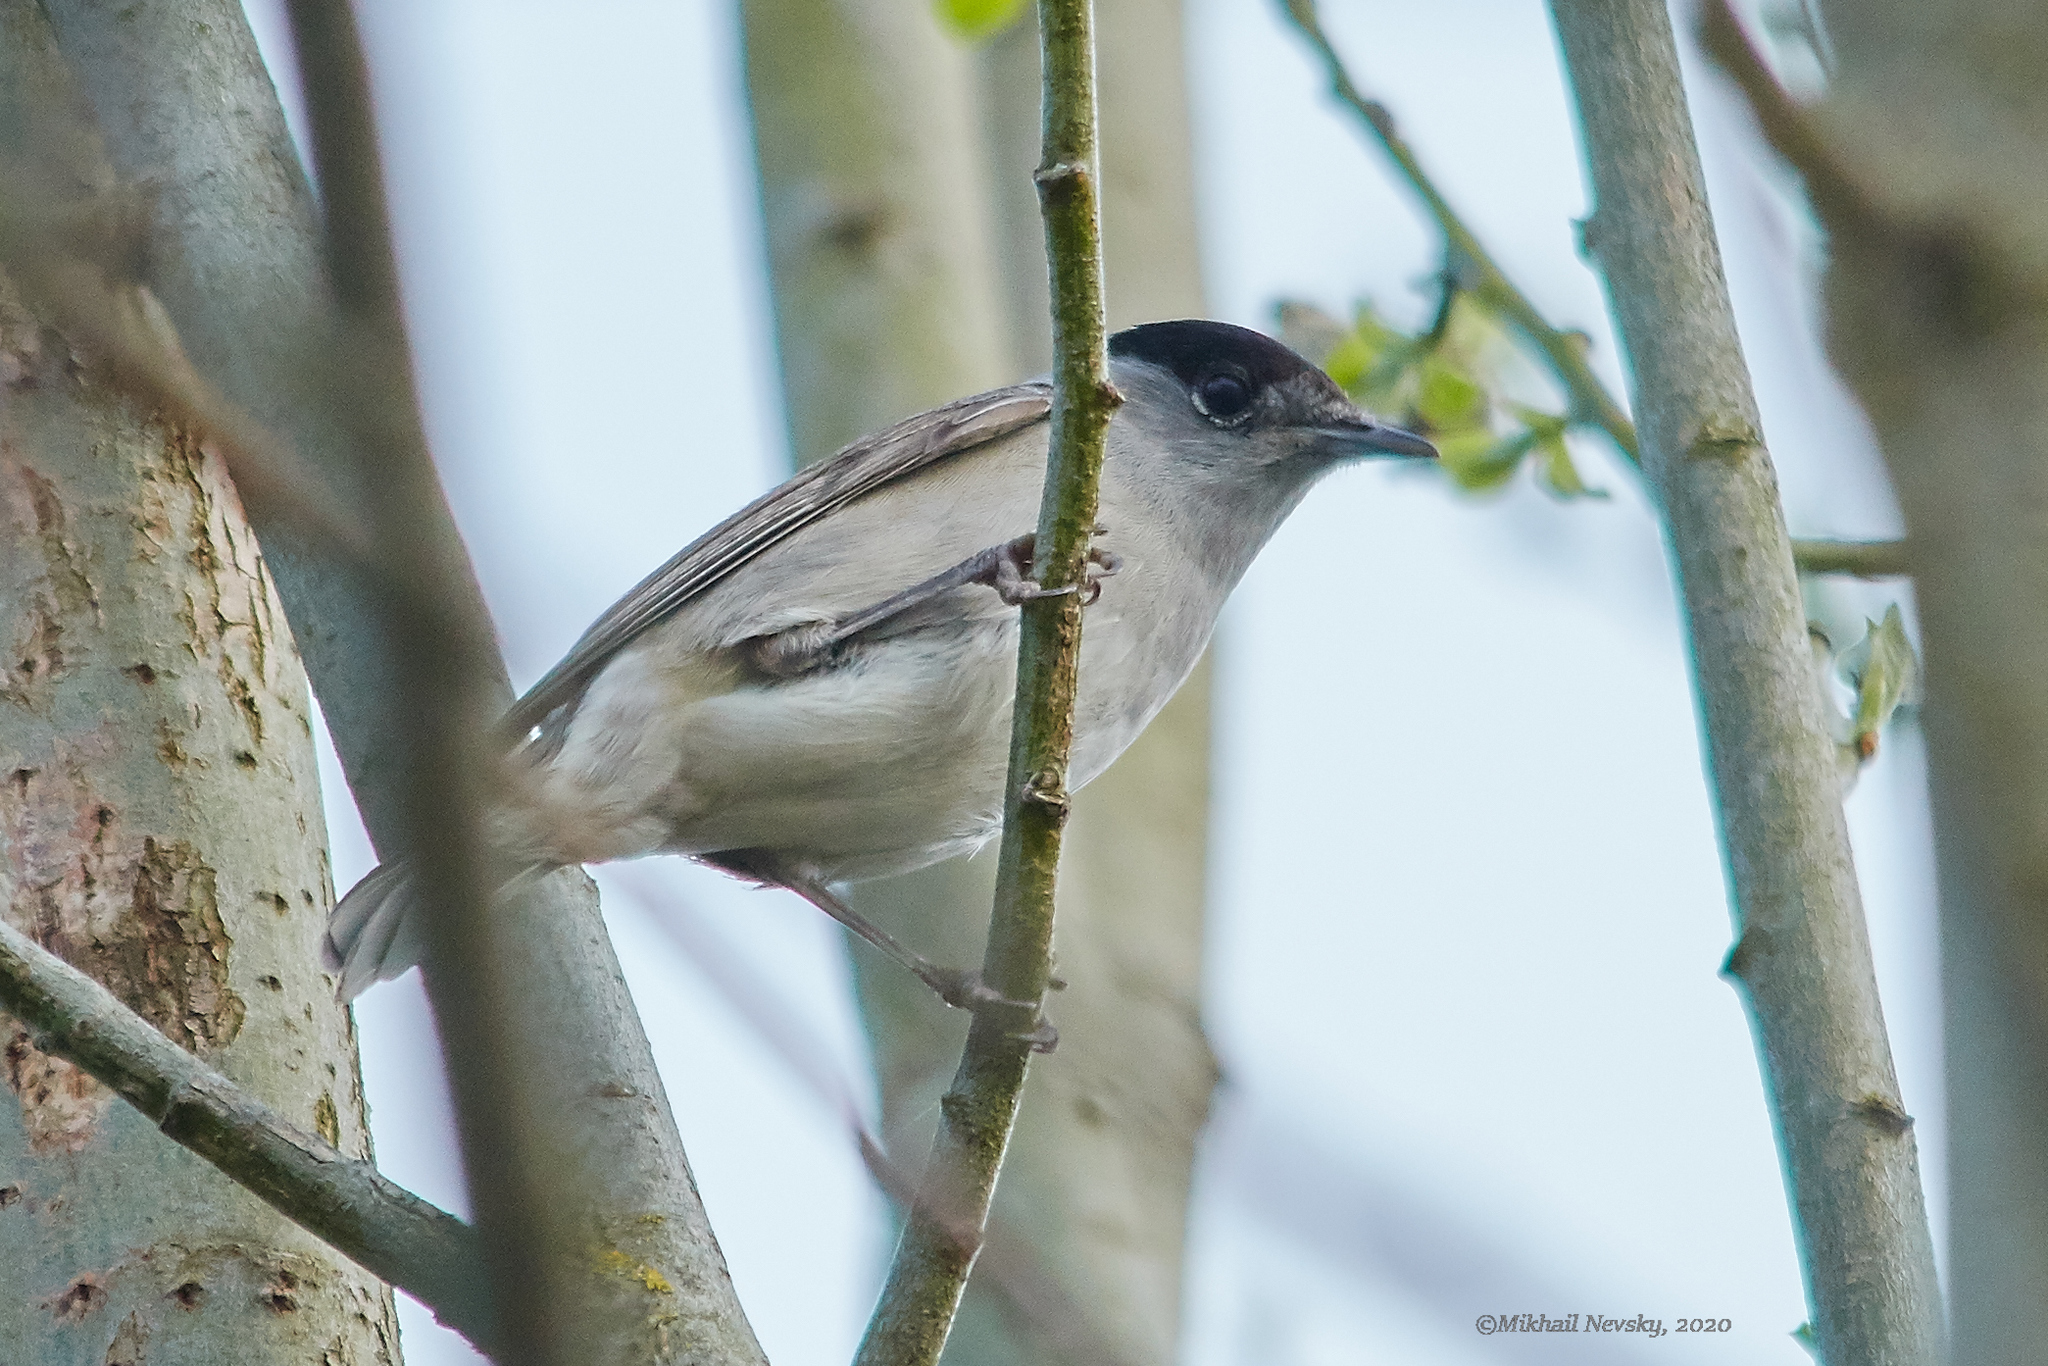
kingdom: Animalia
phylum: Chordata
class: Aves
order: Passeriformes
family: Sylviidae
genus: Sylvia
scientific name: Sylvia atricapilla
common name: Eurasian blackcap
